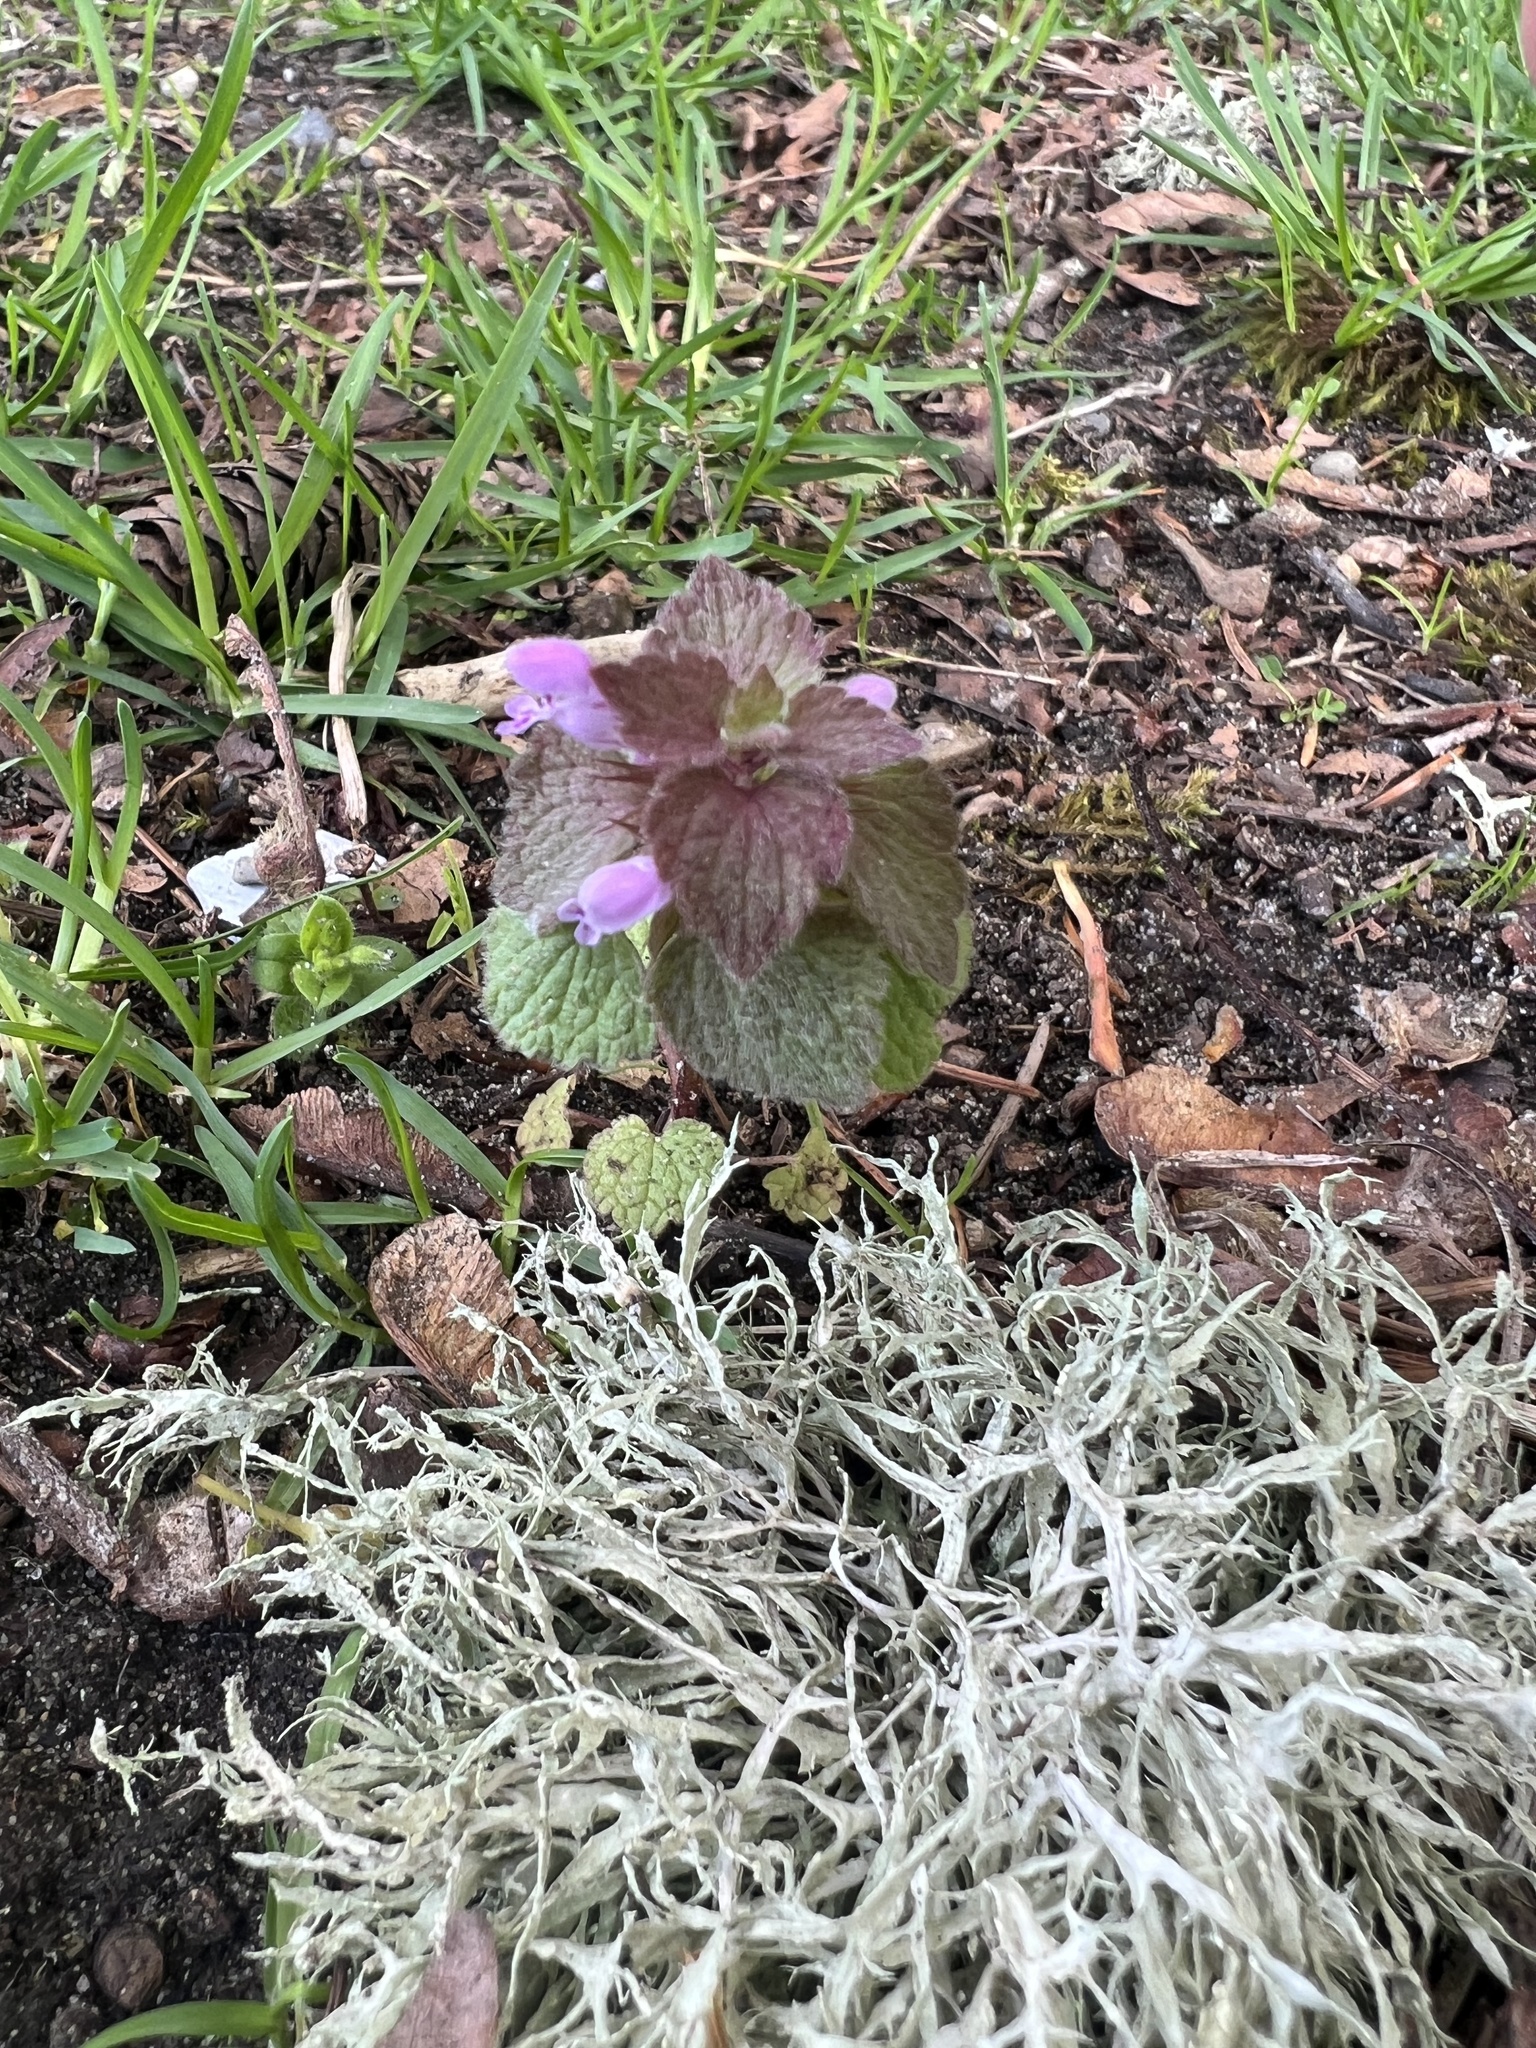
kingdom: Plantae
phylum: Tracheophyta
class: Magnoliopsida
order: Lamiales
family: Lamiaceae
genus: Lamium
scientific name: Lamium purpureum
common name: Red dead-nettle
